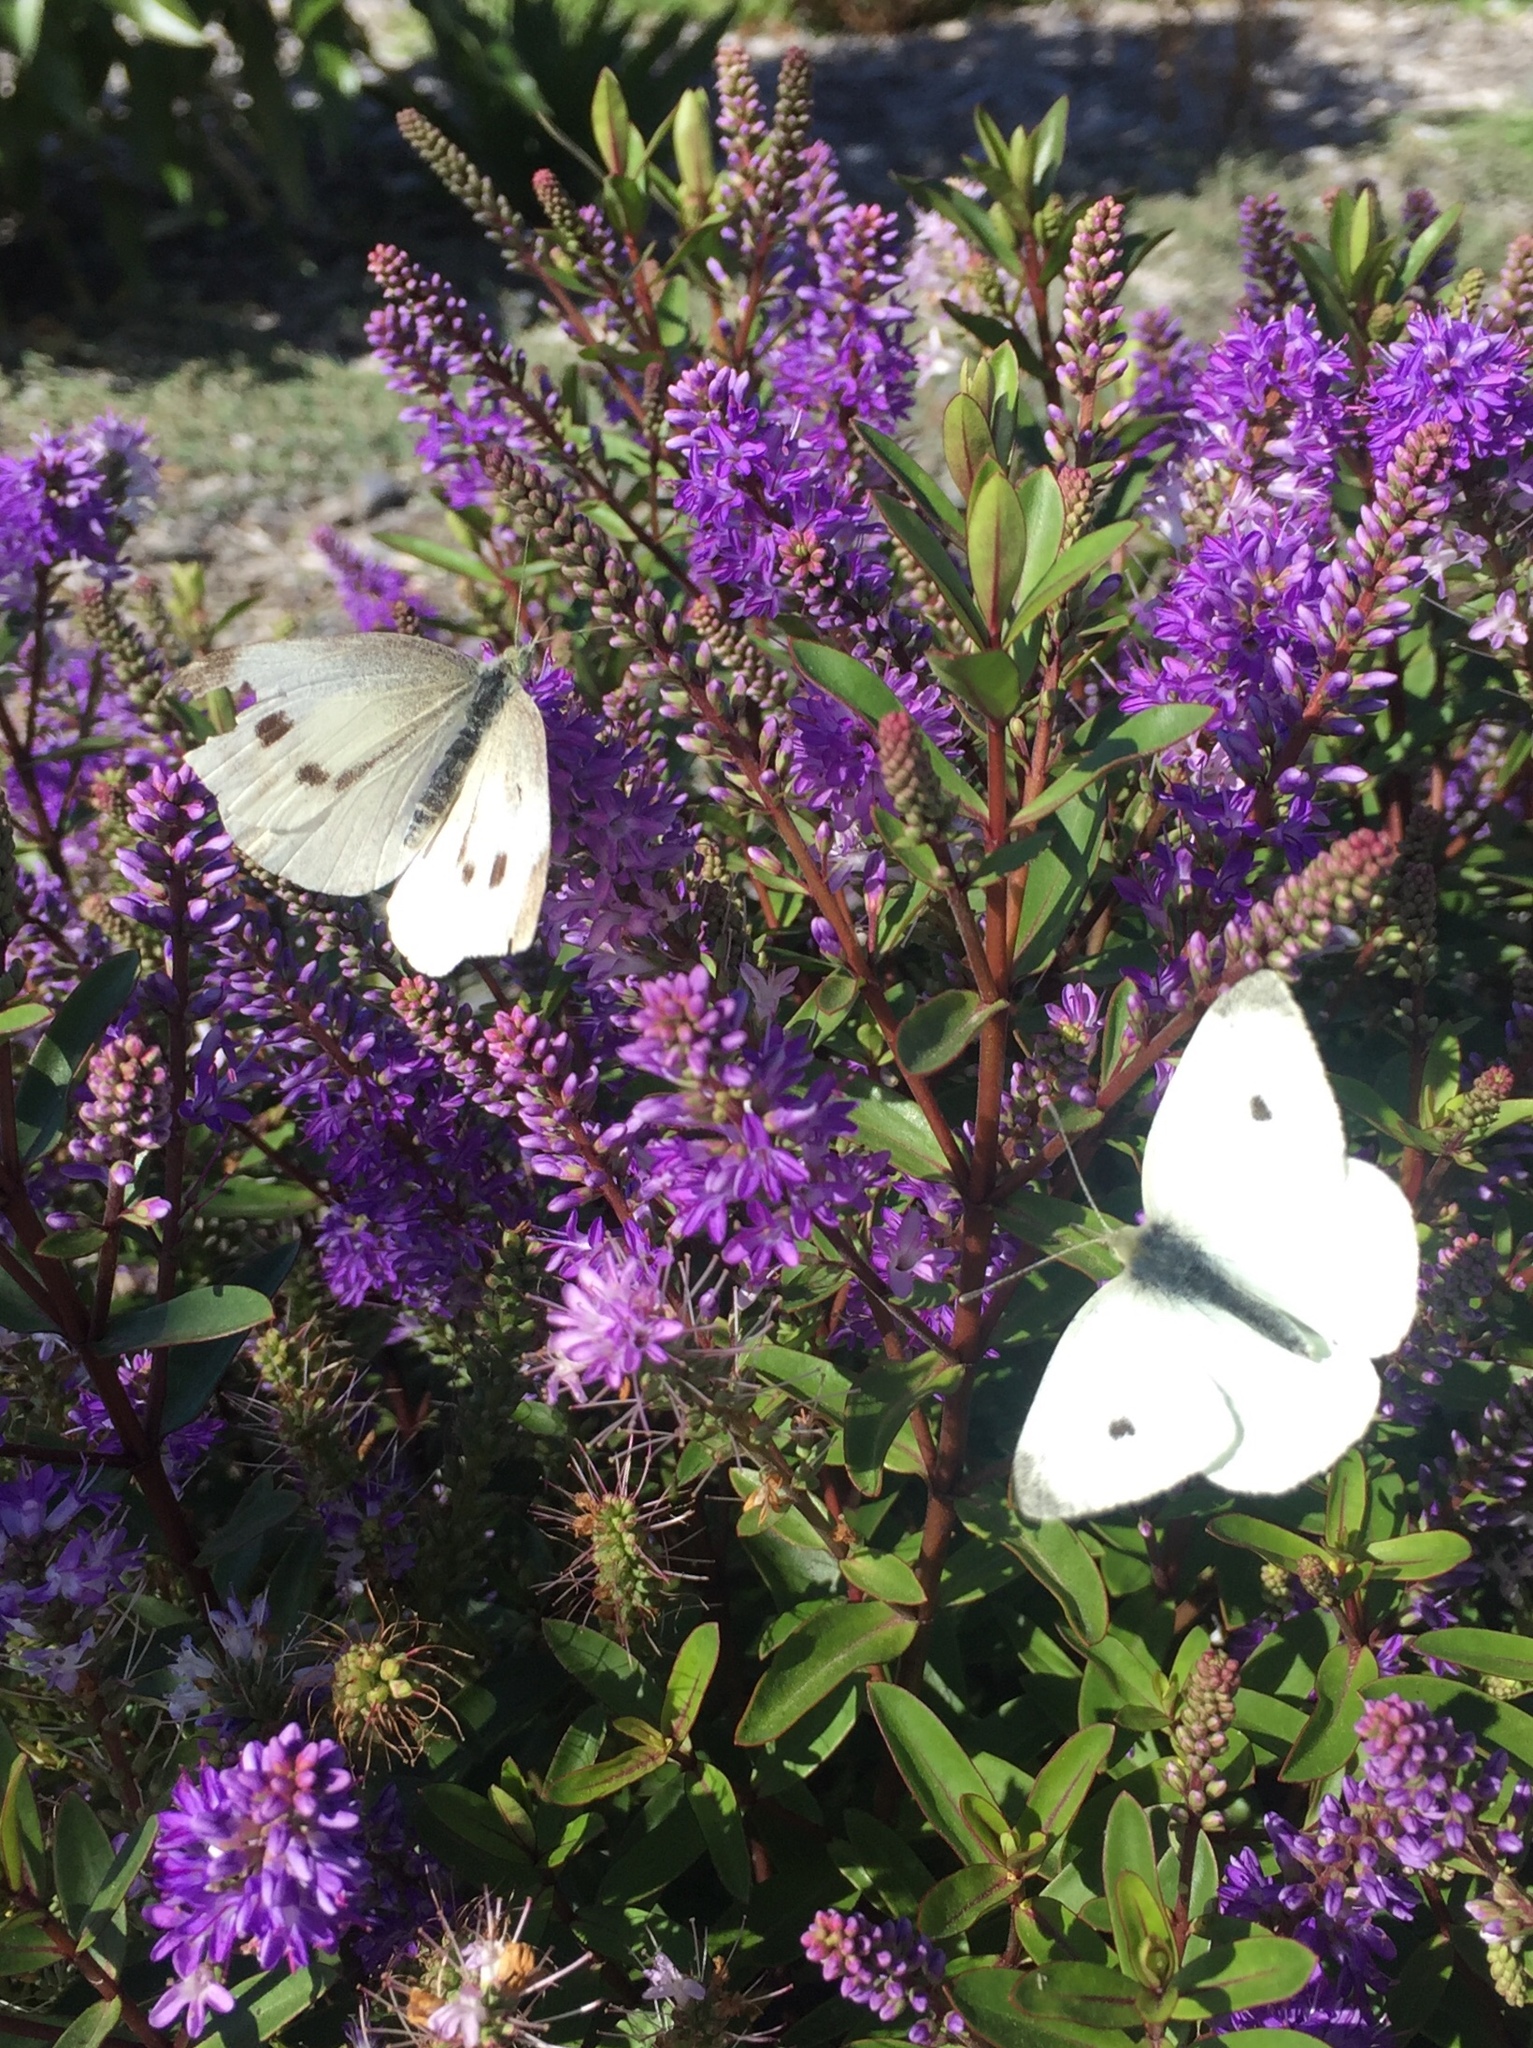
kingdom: Animalia
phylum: Arthropoda
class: Insecta
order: Lepidoptera
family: Pieridae
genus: Pieris
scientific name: Pieris rapae
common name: Small white
